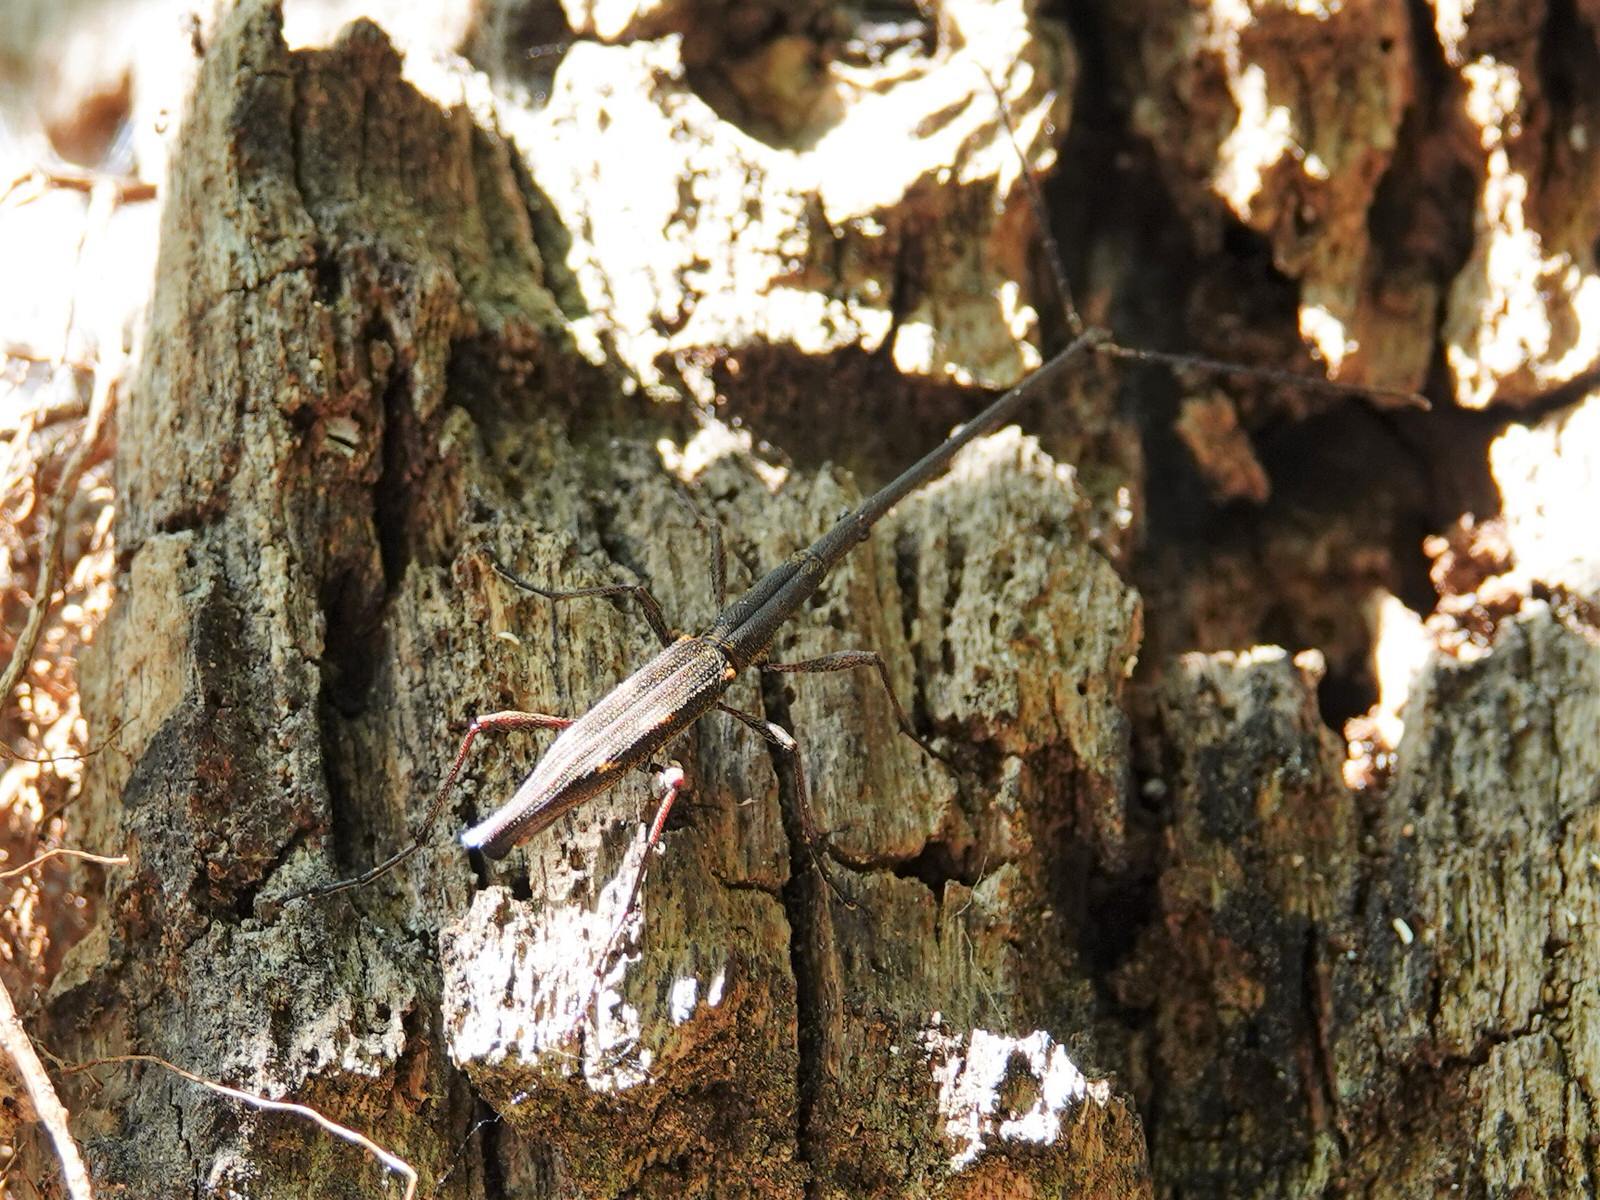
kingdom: Animalia
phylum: Arthropoda
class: Insecta
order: Coleoptera
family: Brentidae
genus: Lasiorhynchus
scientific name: Lasiorhynchus barbicornis
